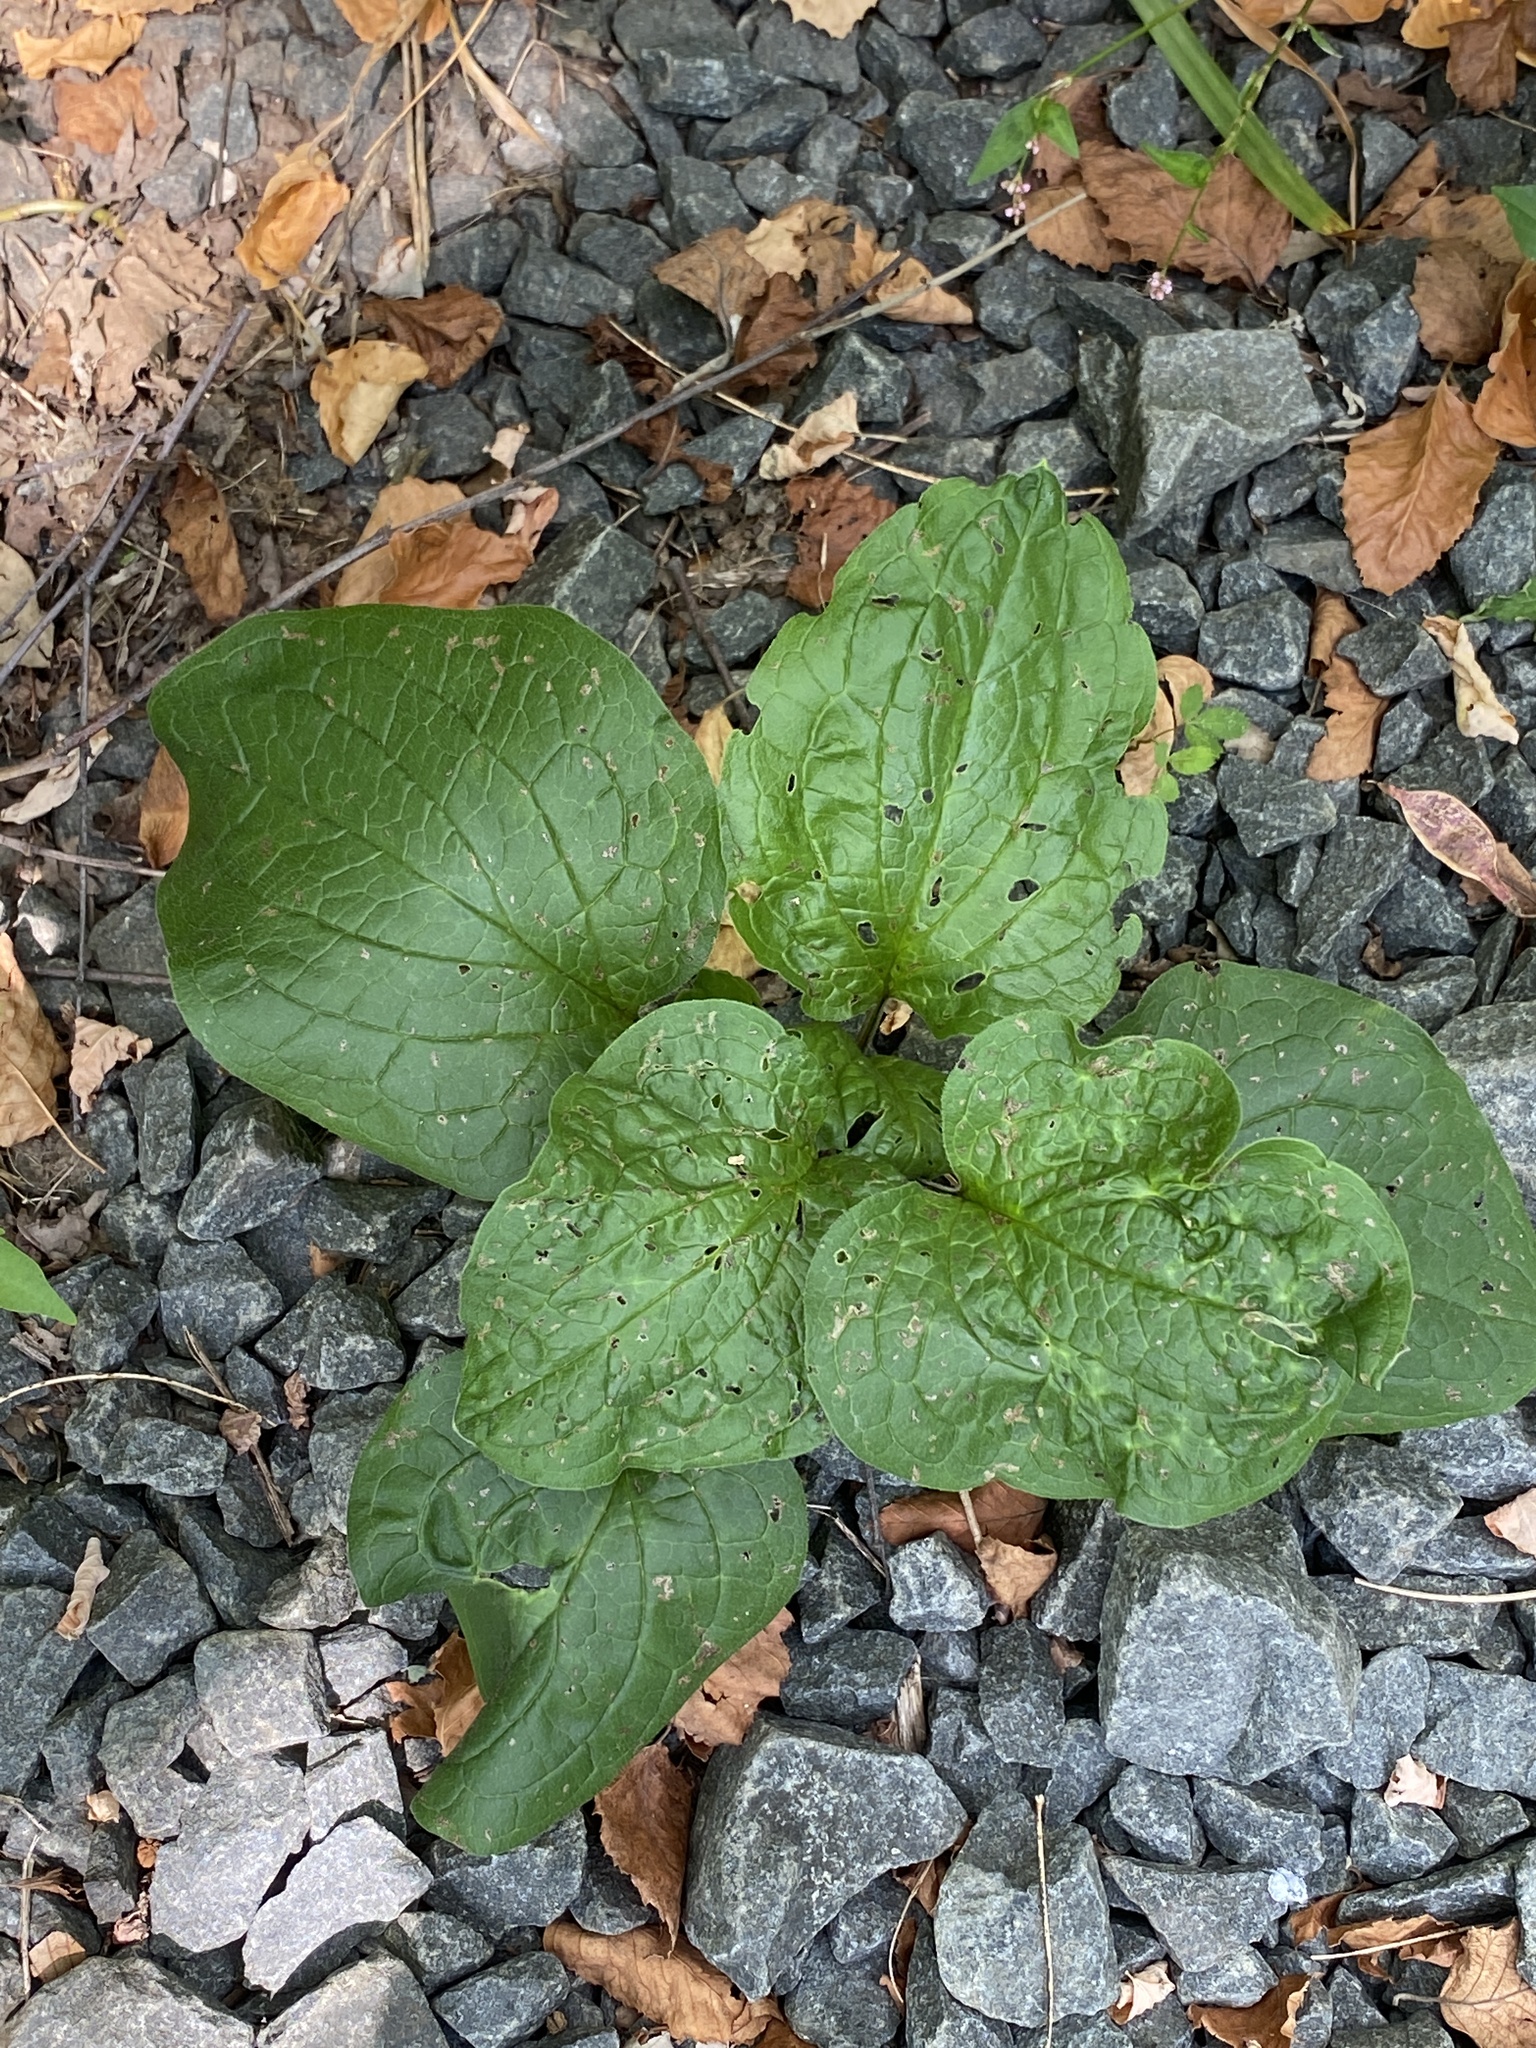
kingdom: Plantae
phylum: Tracheophyta
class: Magnoliopsida
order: Boraginales
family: Boraginaceae
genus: Hackelia
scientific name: Hackelia virginiana
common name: Beggar's-lice
